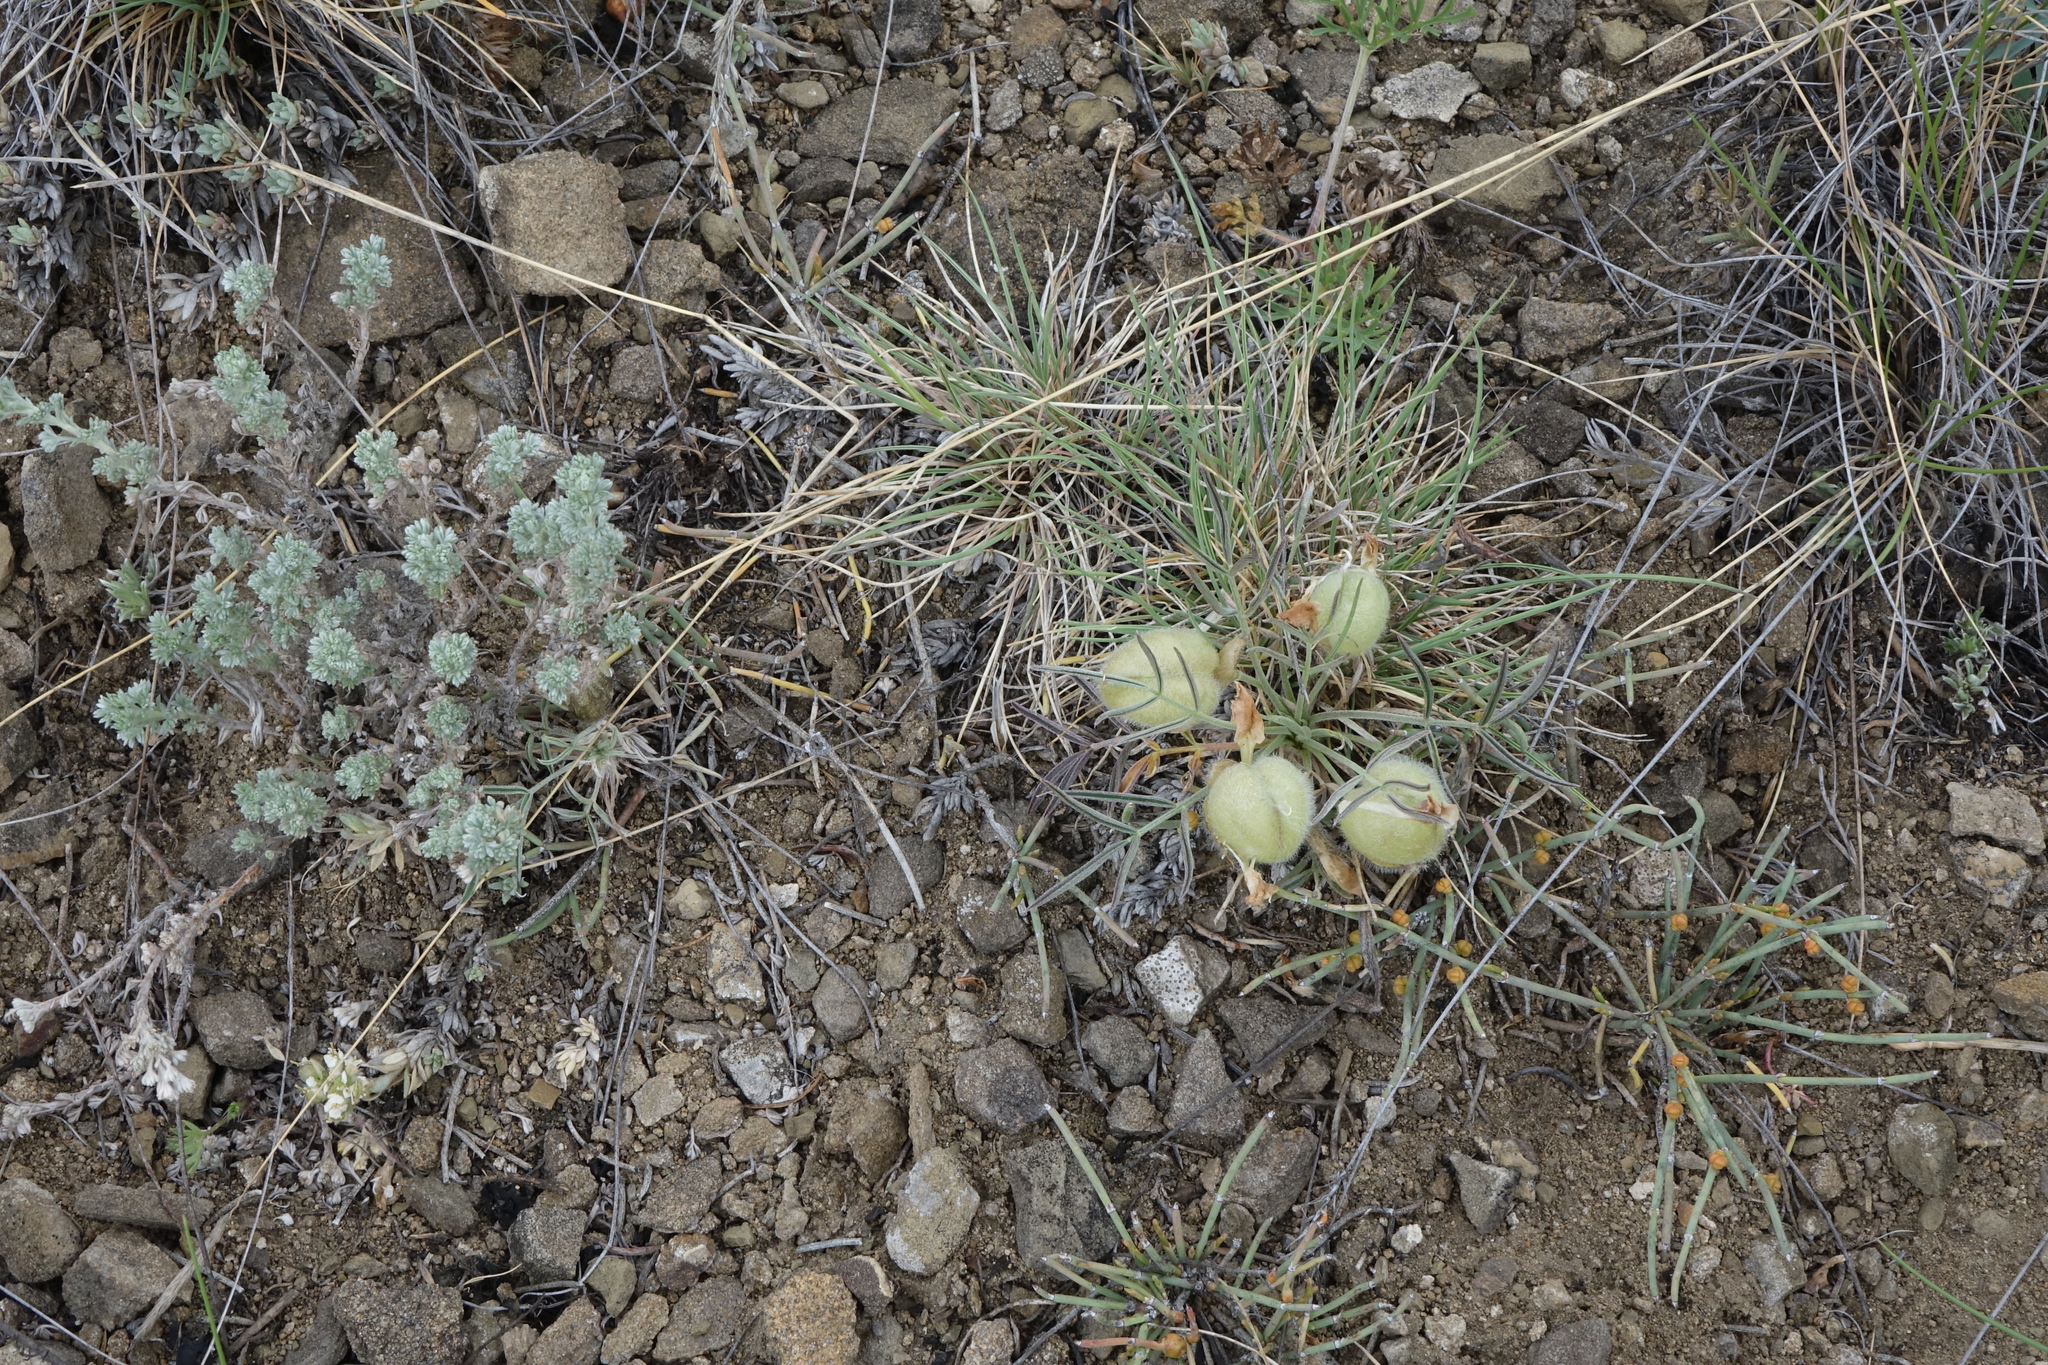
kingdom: Plantae
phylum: Tracheophyta
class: Magnoliopsida
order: Fabales
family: Fabaceae
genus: Oxytropis
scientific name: Oxytropis sobolevskajae
